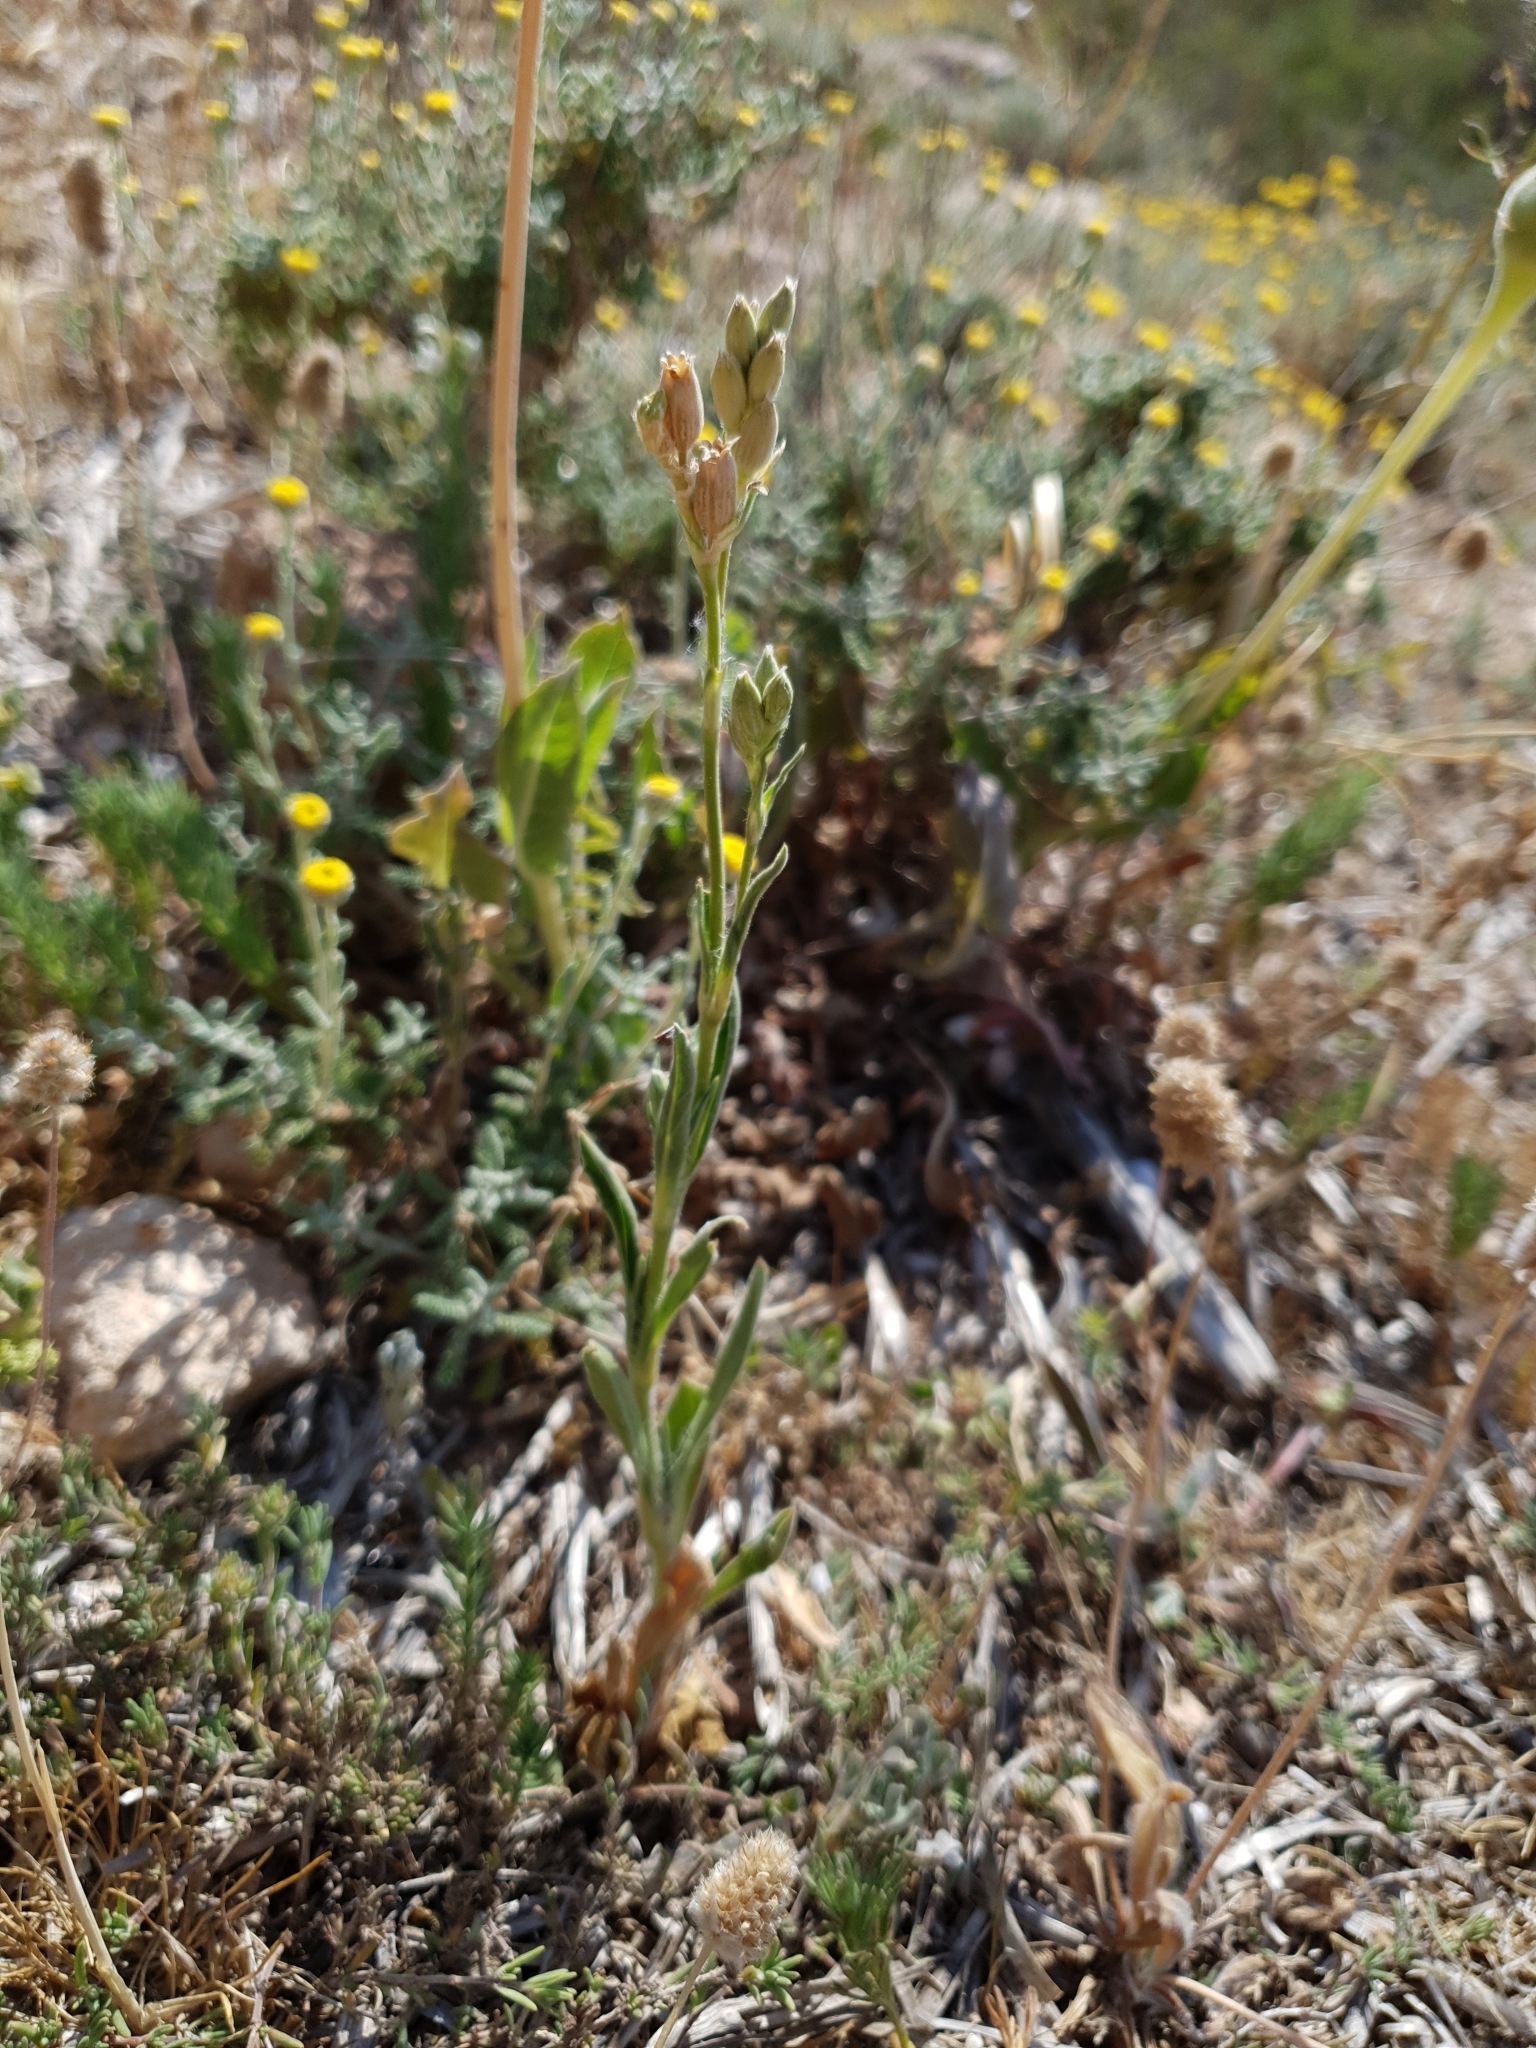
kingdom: Plantae
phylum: Tracheophyta
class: Magnoliopsida
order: Caryophyllales
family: Caryophyllaceae
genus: Silene
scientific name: Silene nocturna
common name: Mediterranean catchfly
